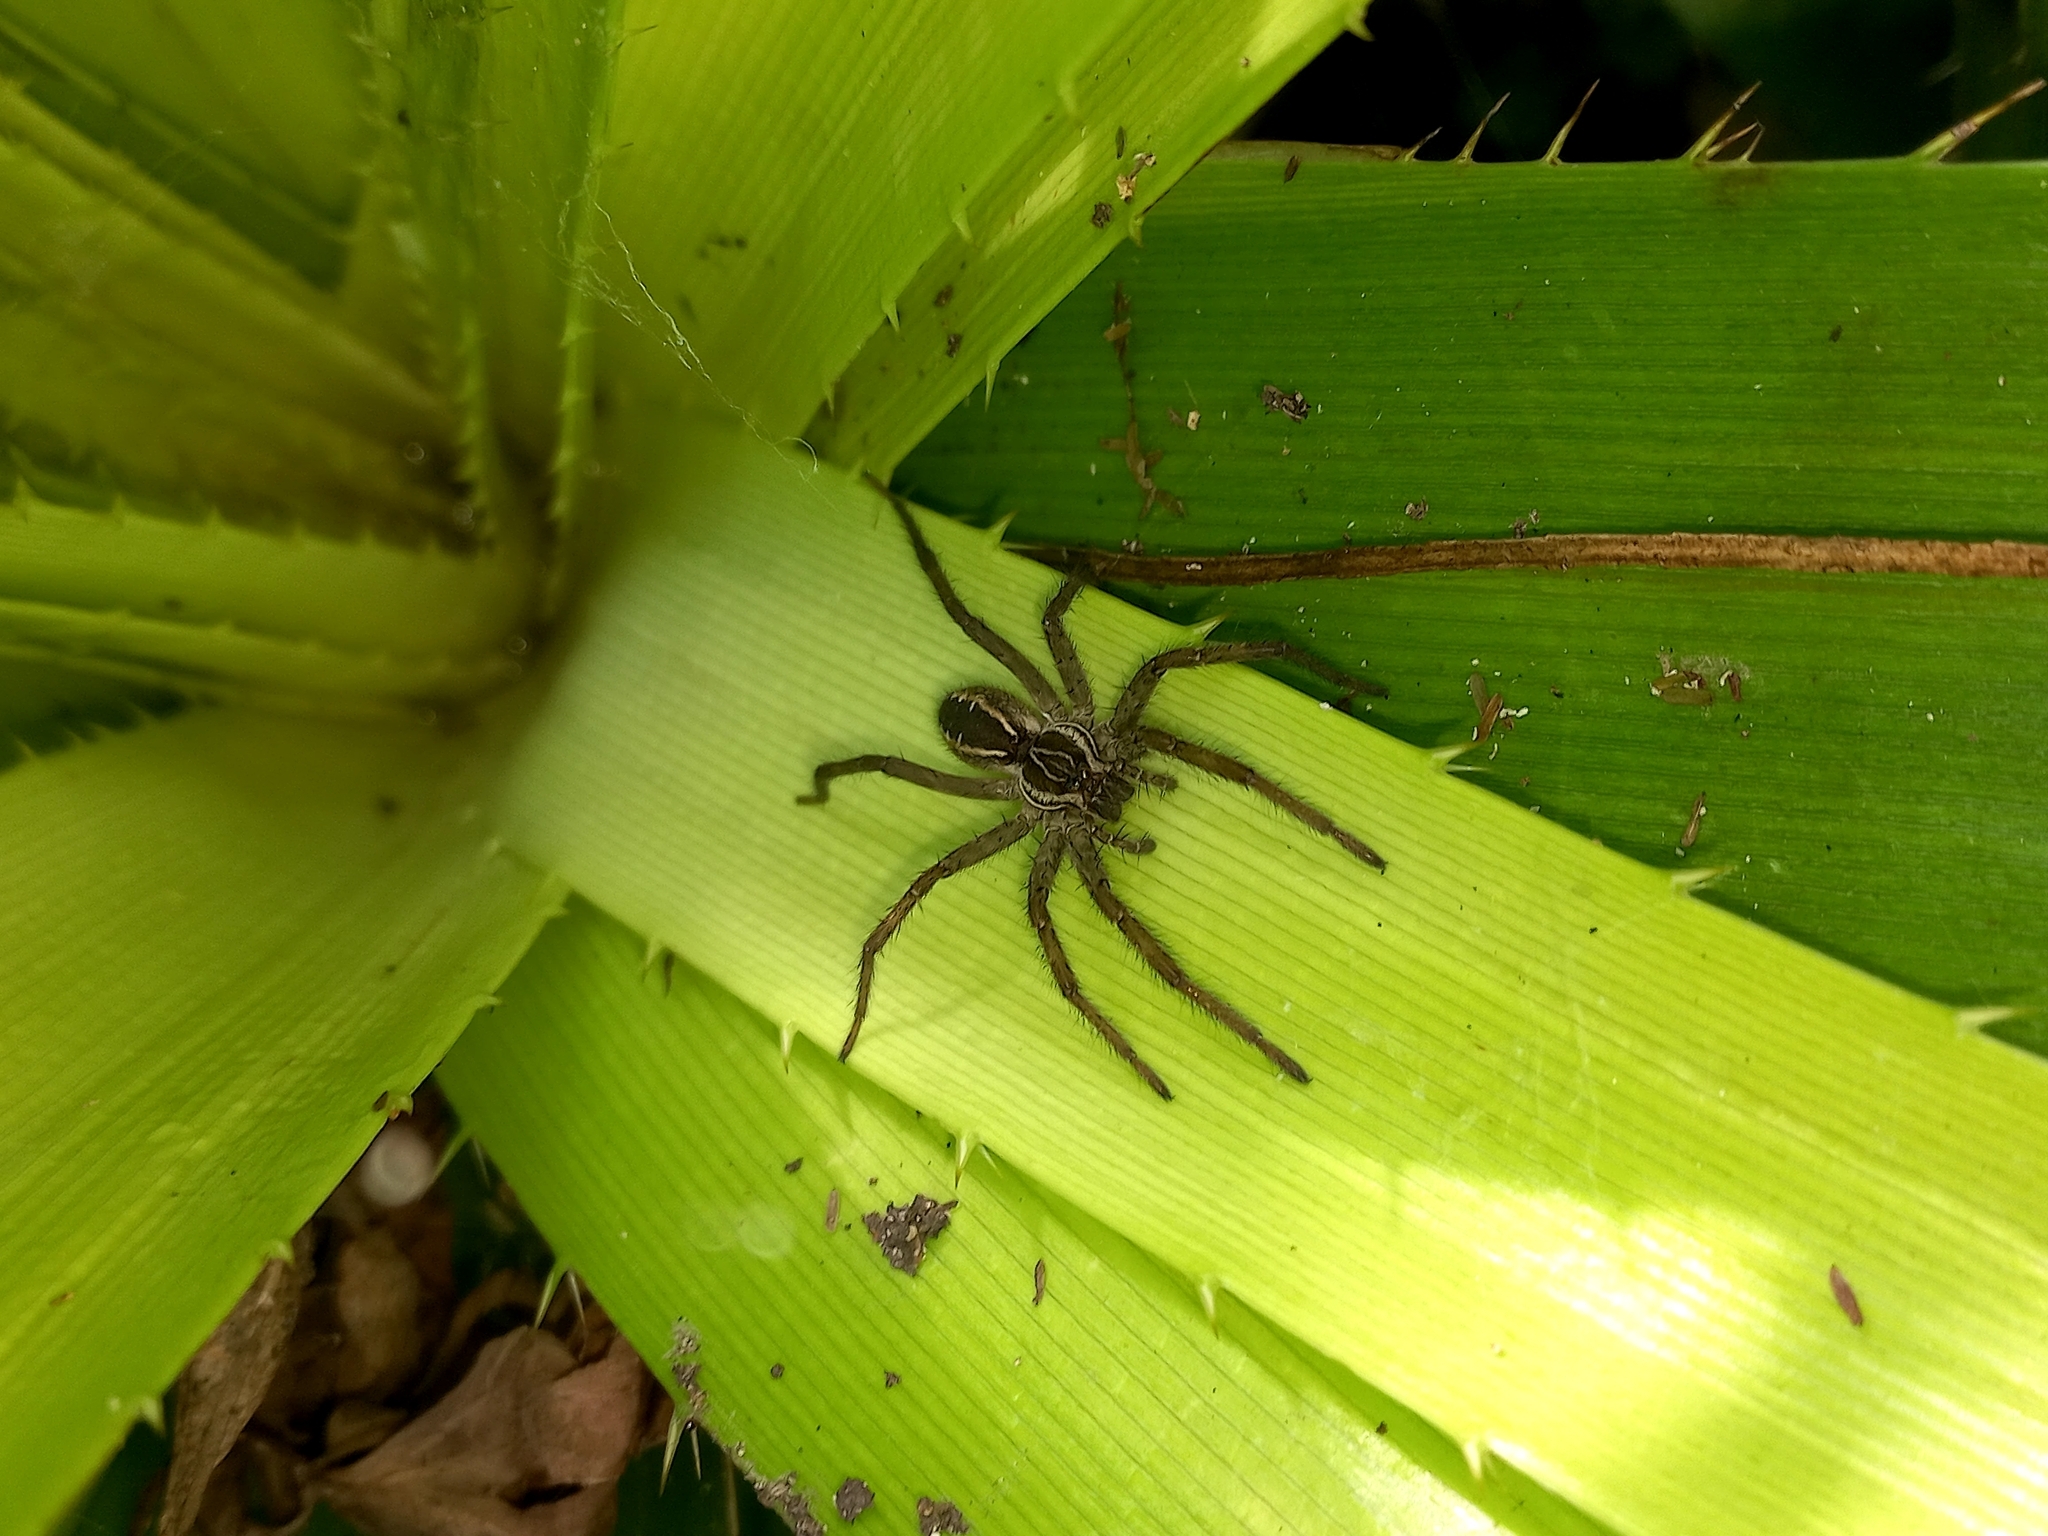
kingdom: Animalia
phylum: Arthropoda
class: Arachnida
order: Araneae
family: Lycosidae
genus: Aglaoctenus
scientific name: Aglaoctenus lagotis
